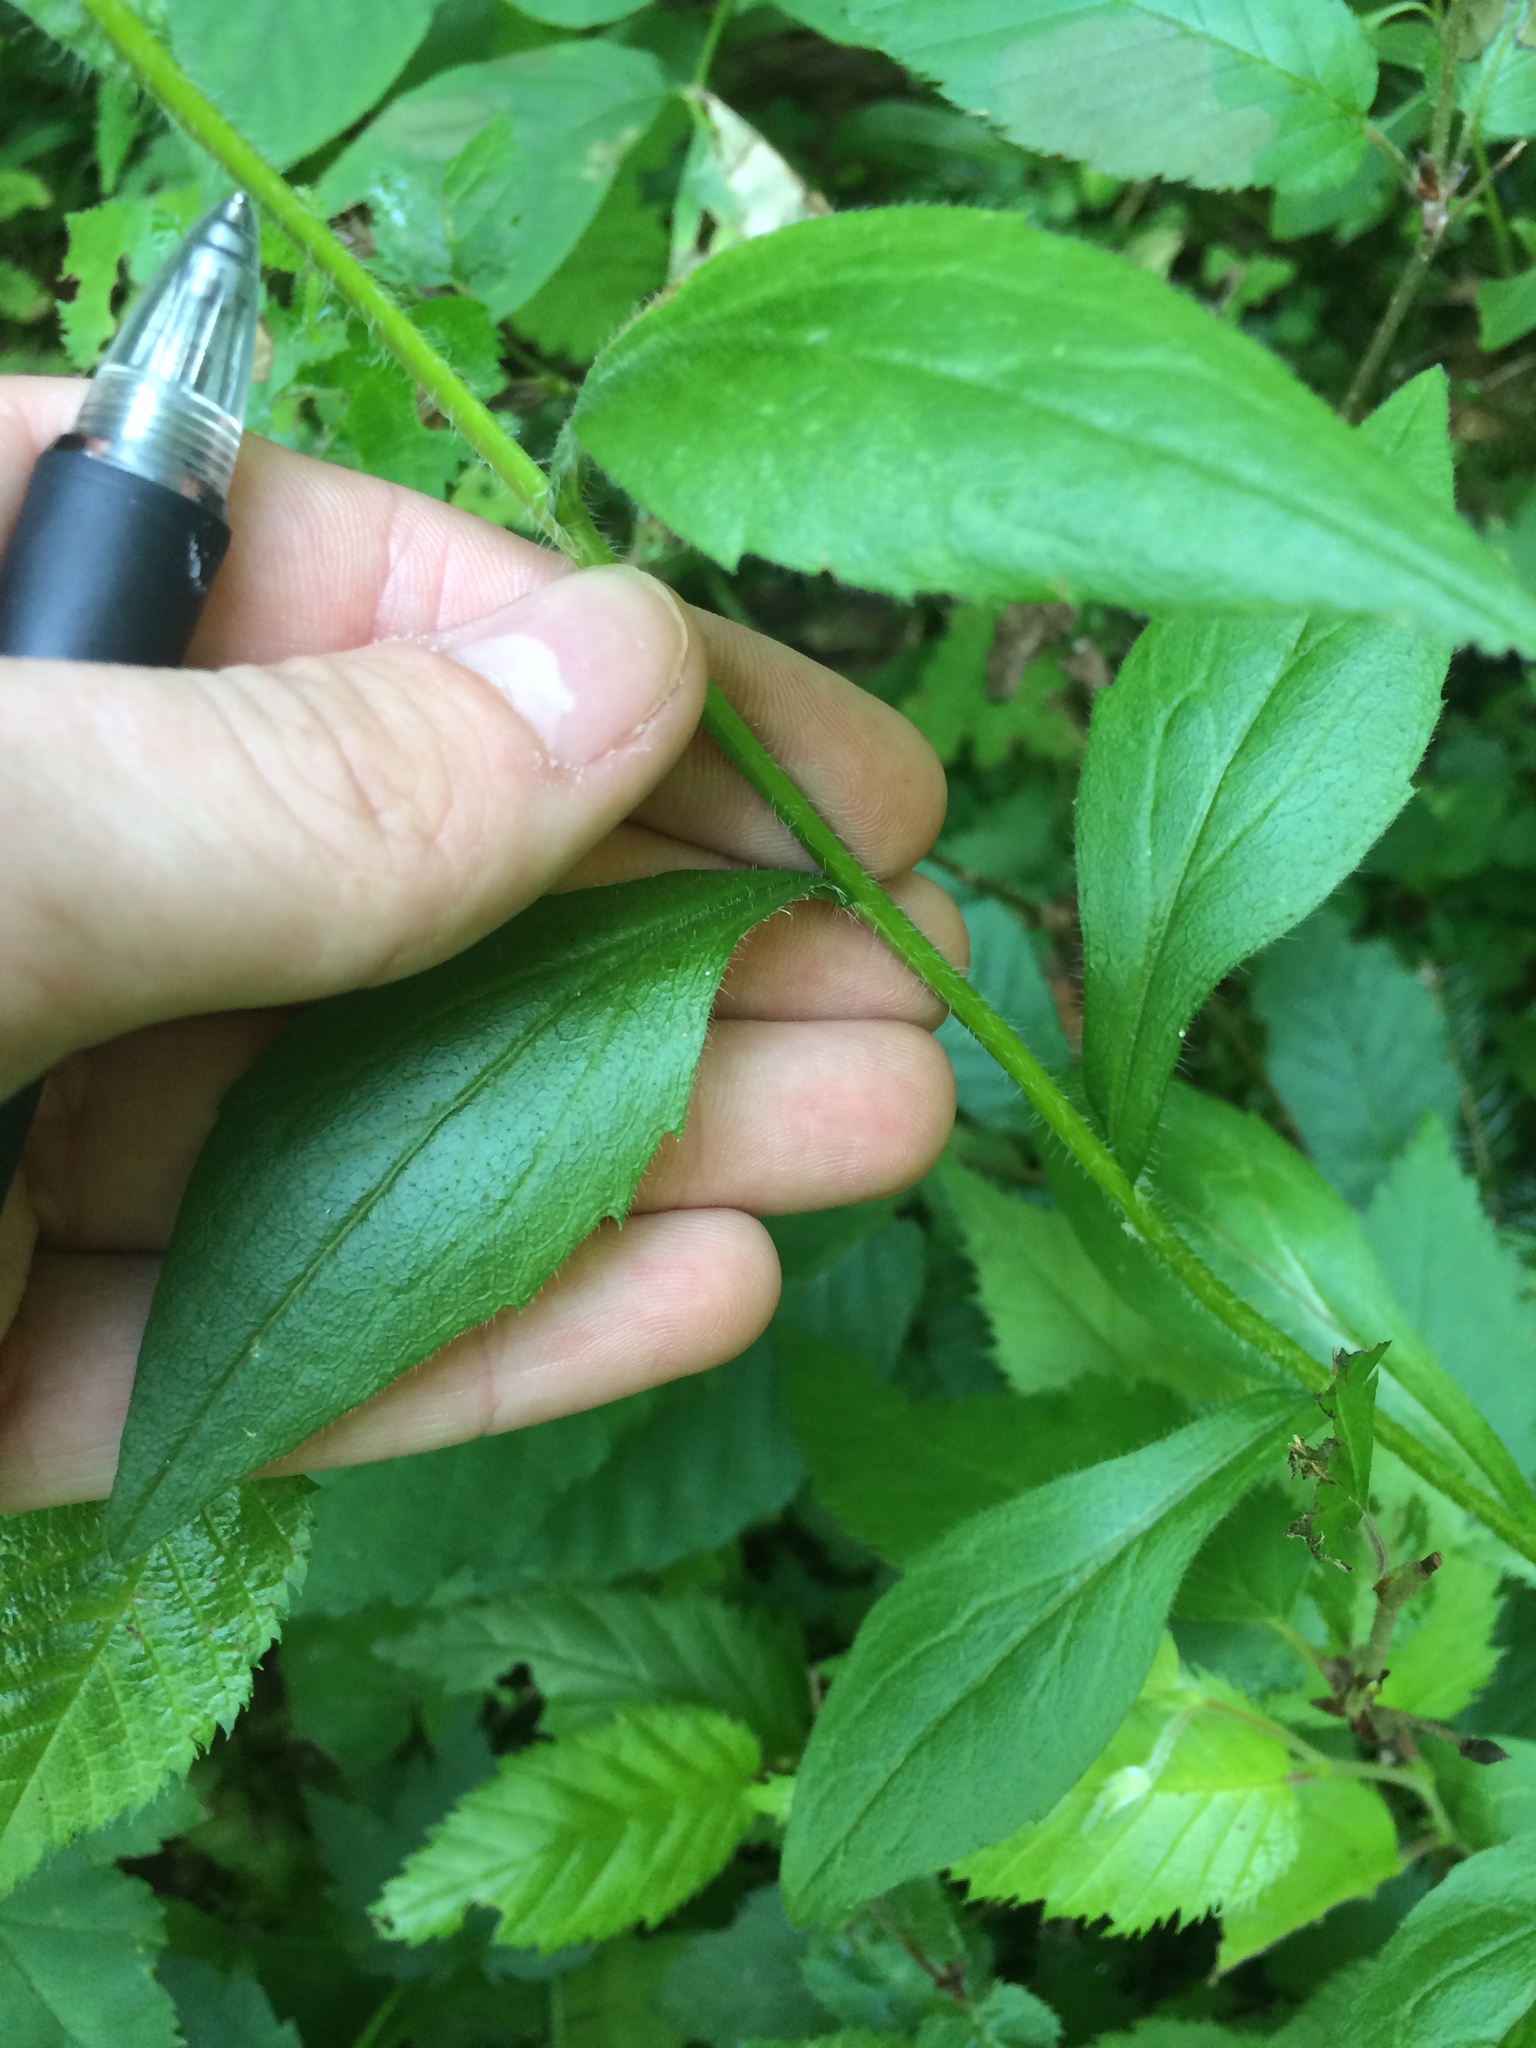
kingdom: Plantae
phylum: Tracheophyta
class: Magnoliopsida
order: Asterales
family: Asteraceae
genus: Erigeron
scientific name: Erigeron annuus
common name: Tall fleabane
